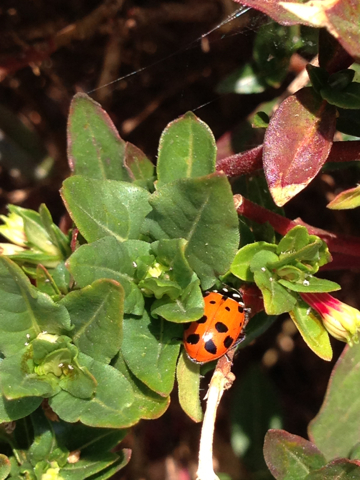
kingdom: Animalia
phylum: Arthropoda
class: Insecta
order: Coleoptera
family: Coccinellidae
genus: Hippodamia
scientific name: Hippodamia convergens
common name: Convergent lady beetle
